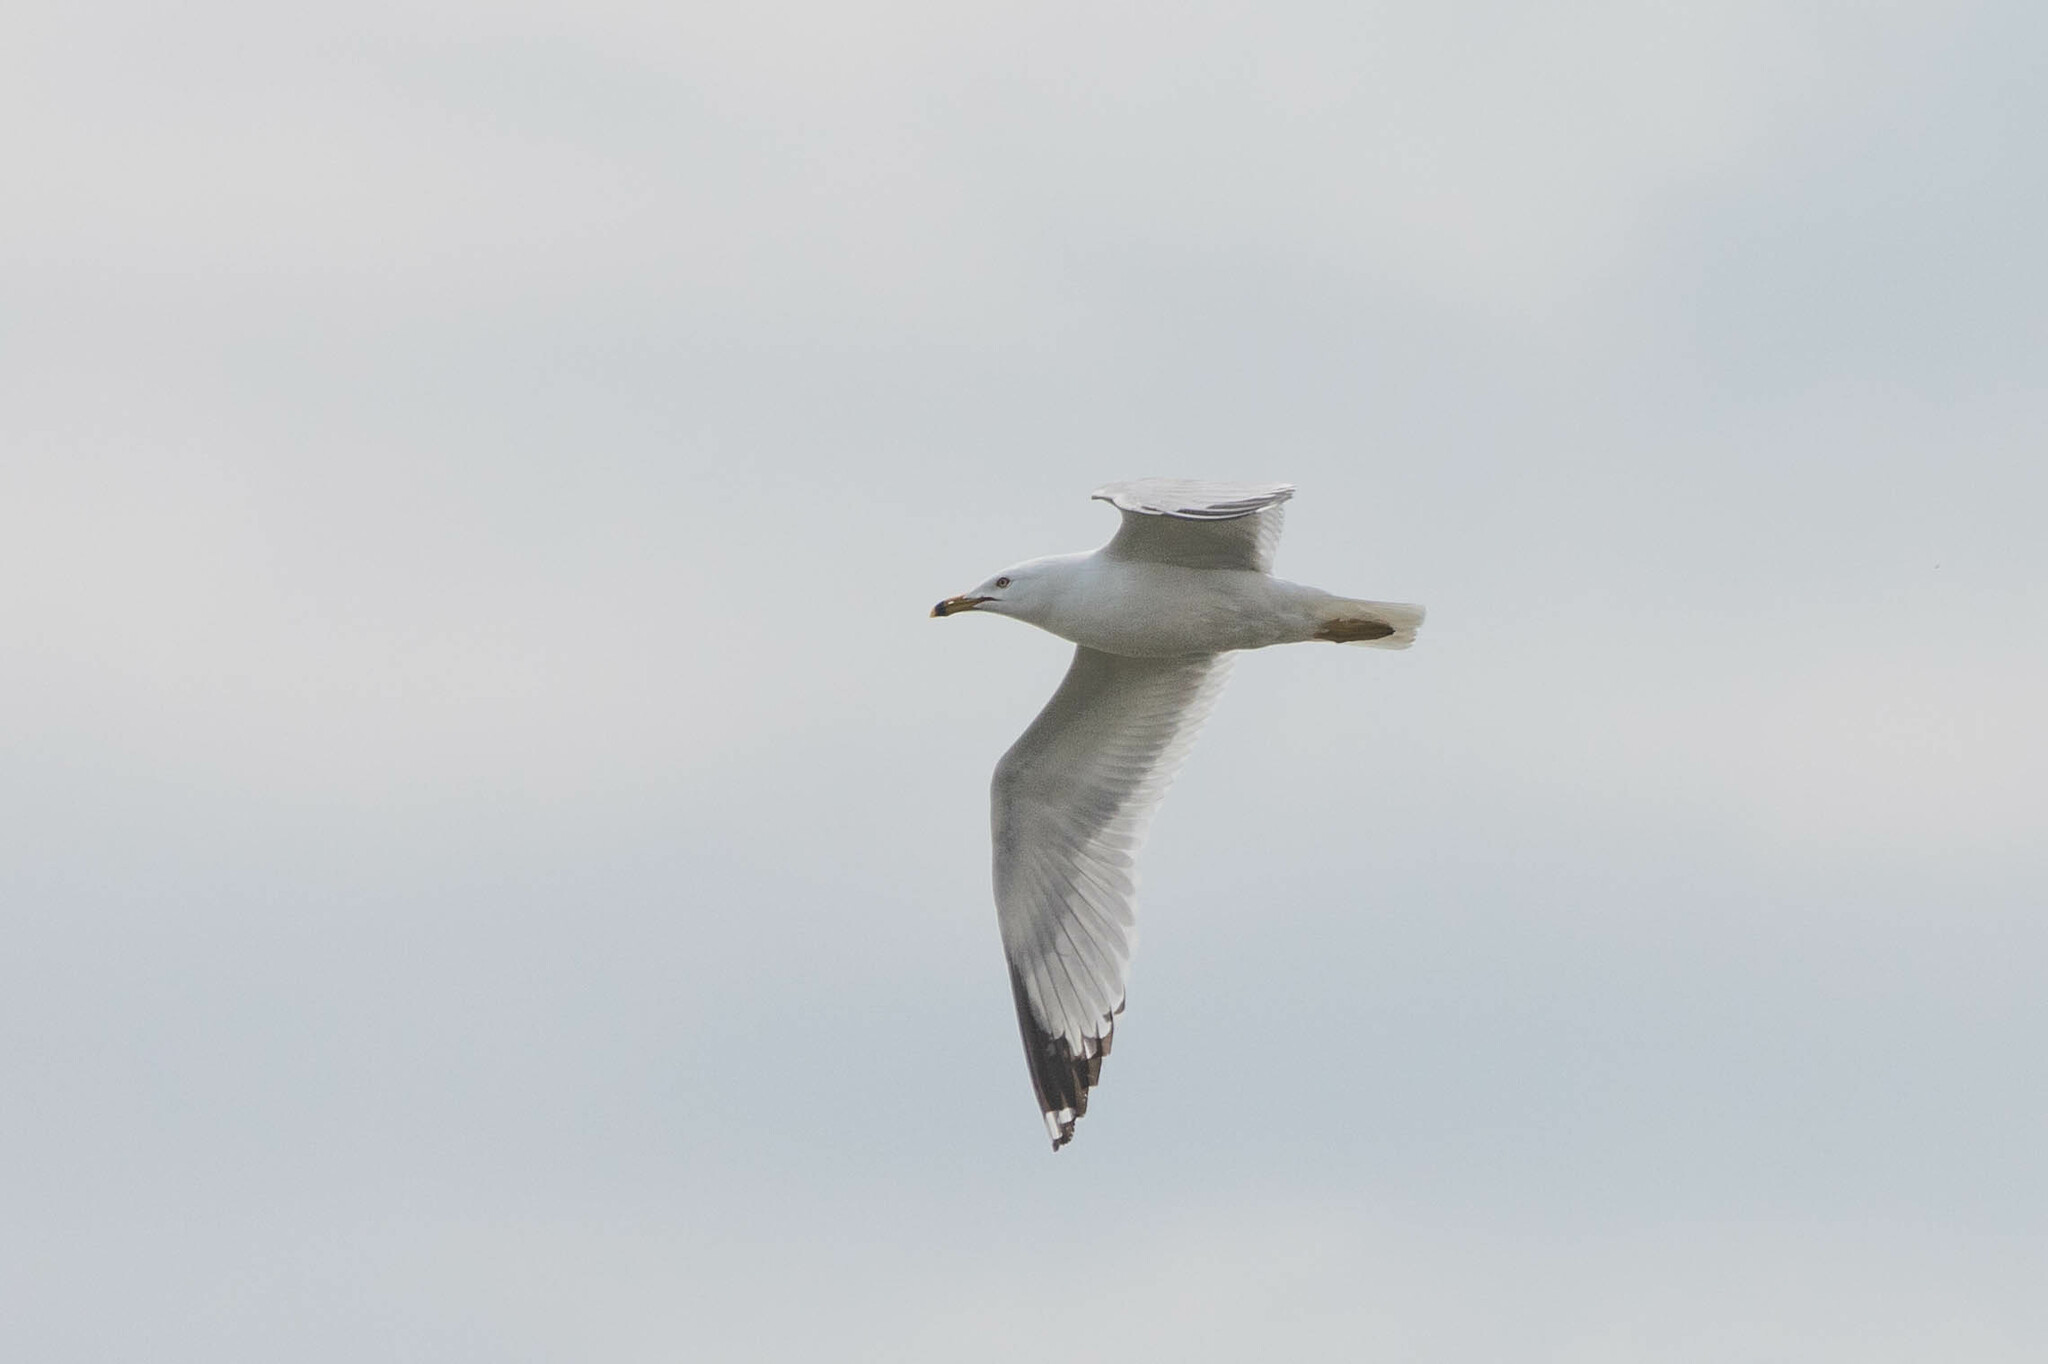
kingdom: Animalia
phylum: Chordata
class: Aves
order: Charadriiformes
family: Laridae
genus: Larus
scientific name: Larus delawarensis
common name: Ring-billed gull
